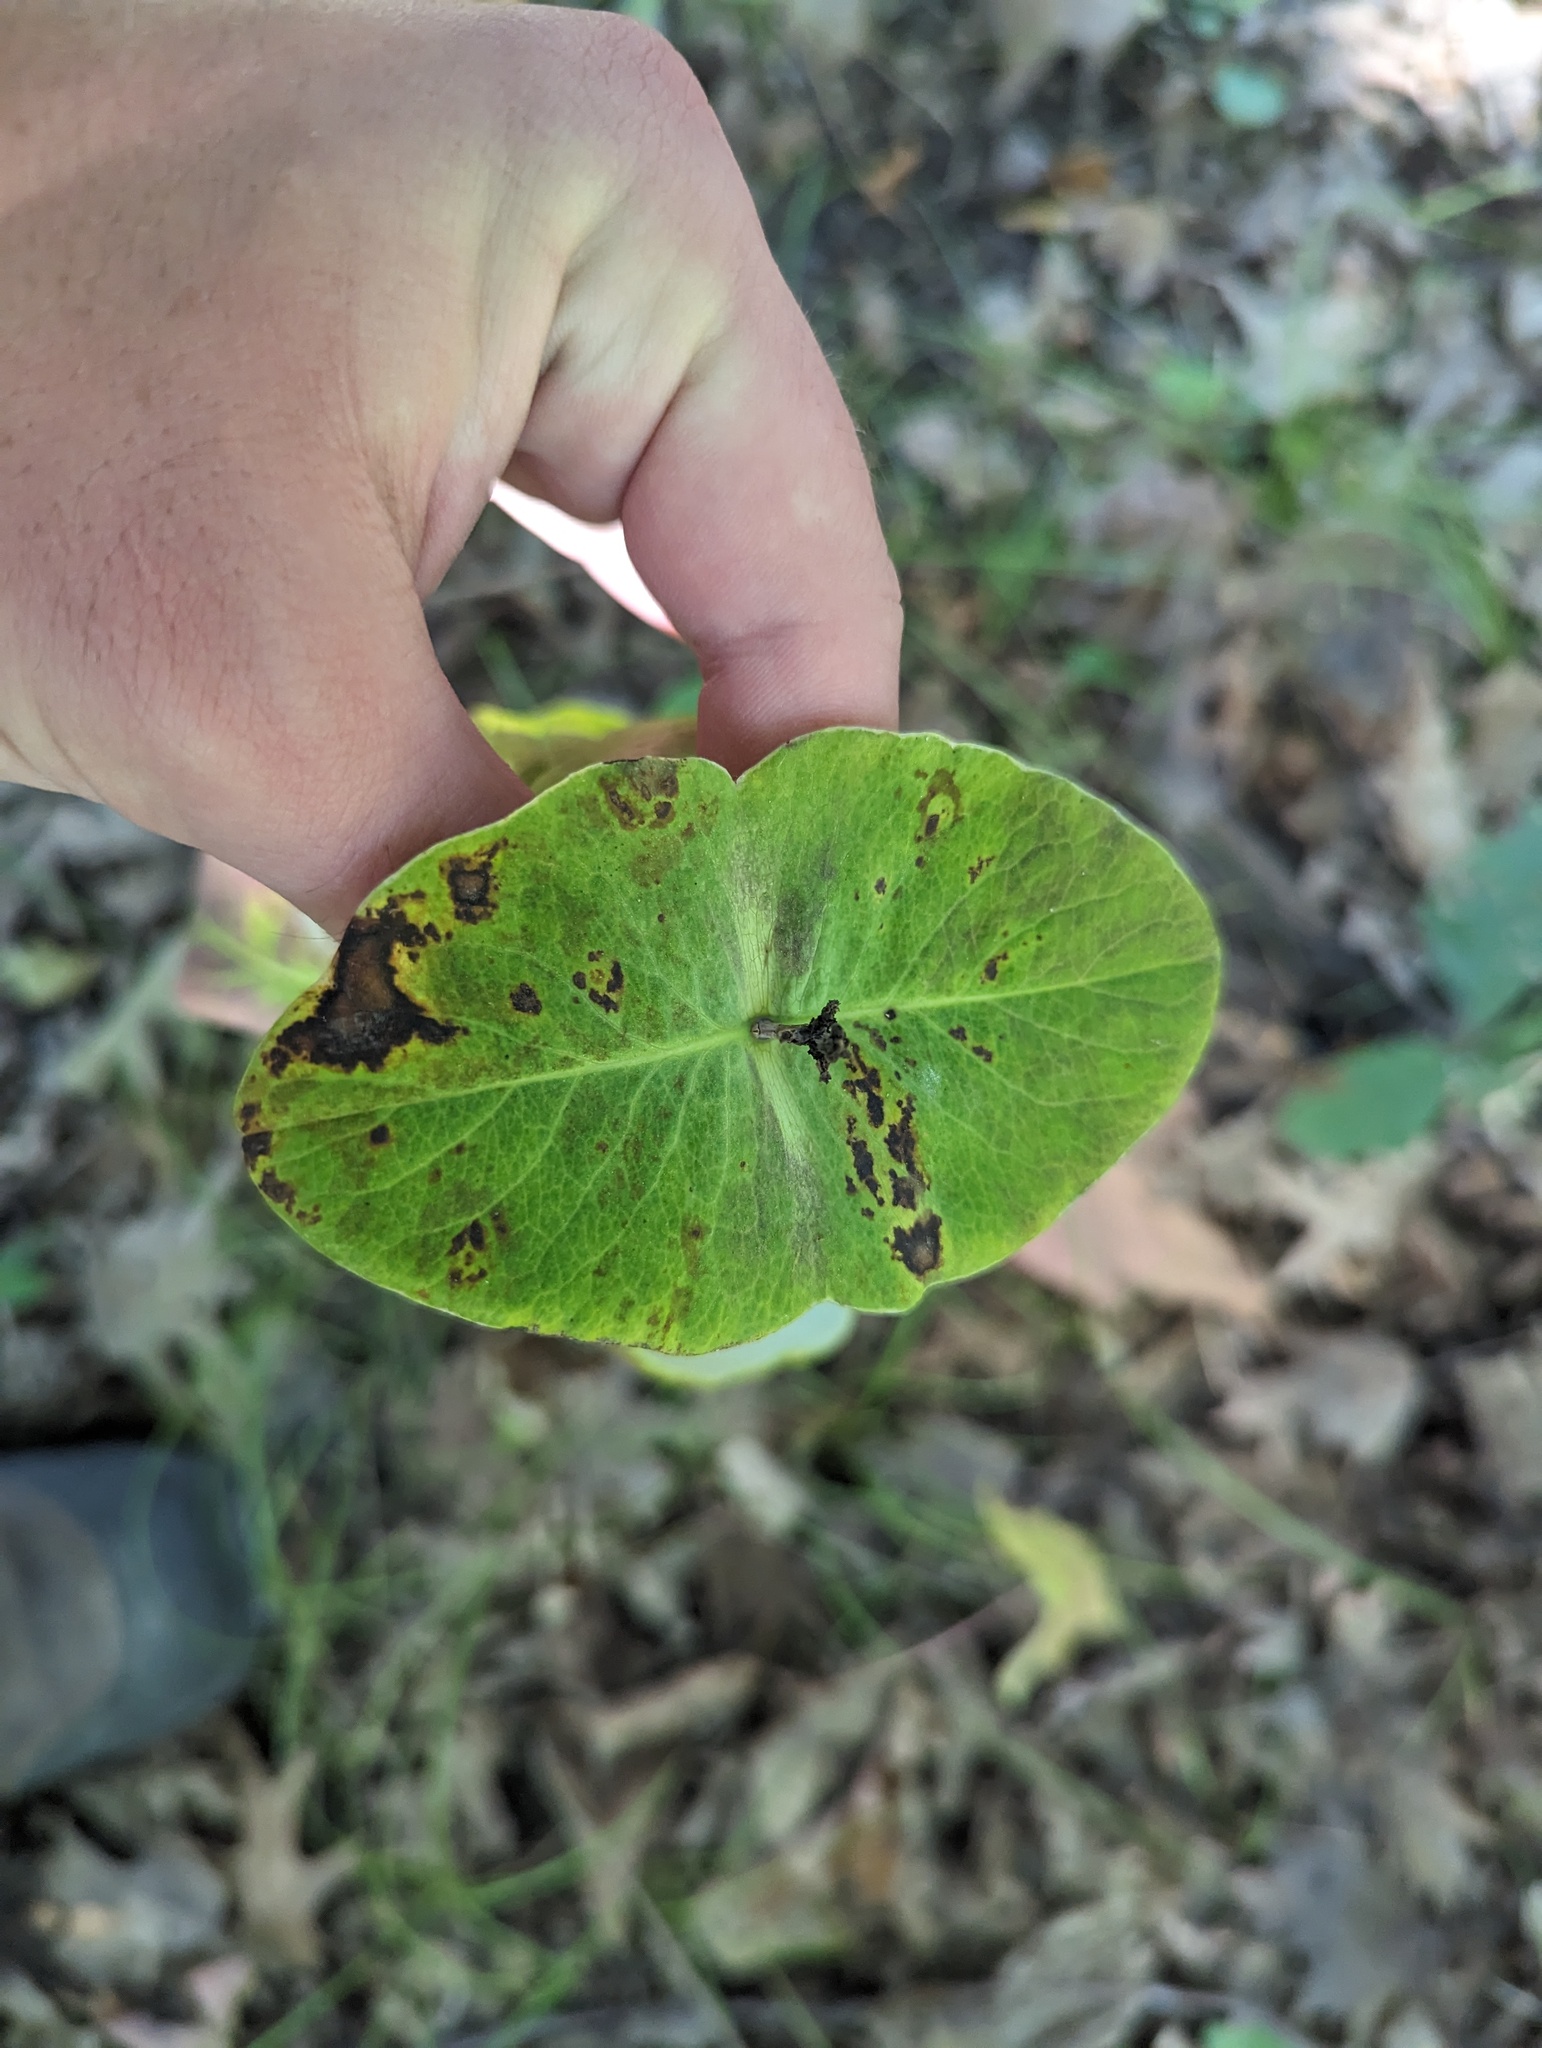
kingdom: Plantae
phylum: Tracheophyta
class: Magnoliopsida
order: Dipsacales
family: Caprifoliaceae
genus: Lonicera
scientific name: Lonicera dioica
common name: Limber honeysuckle
